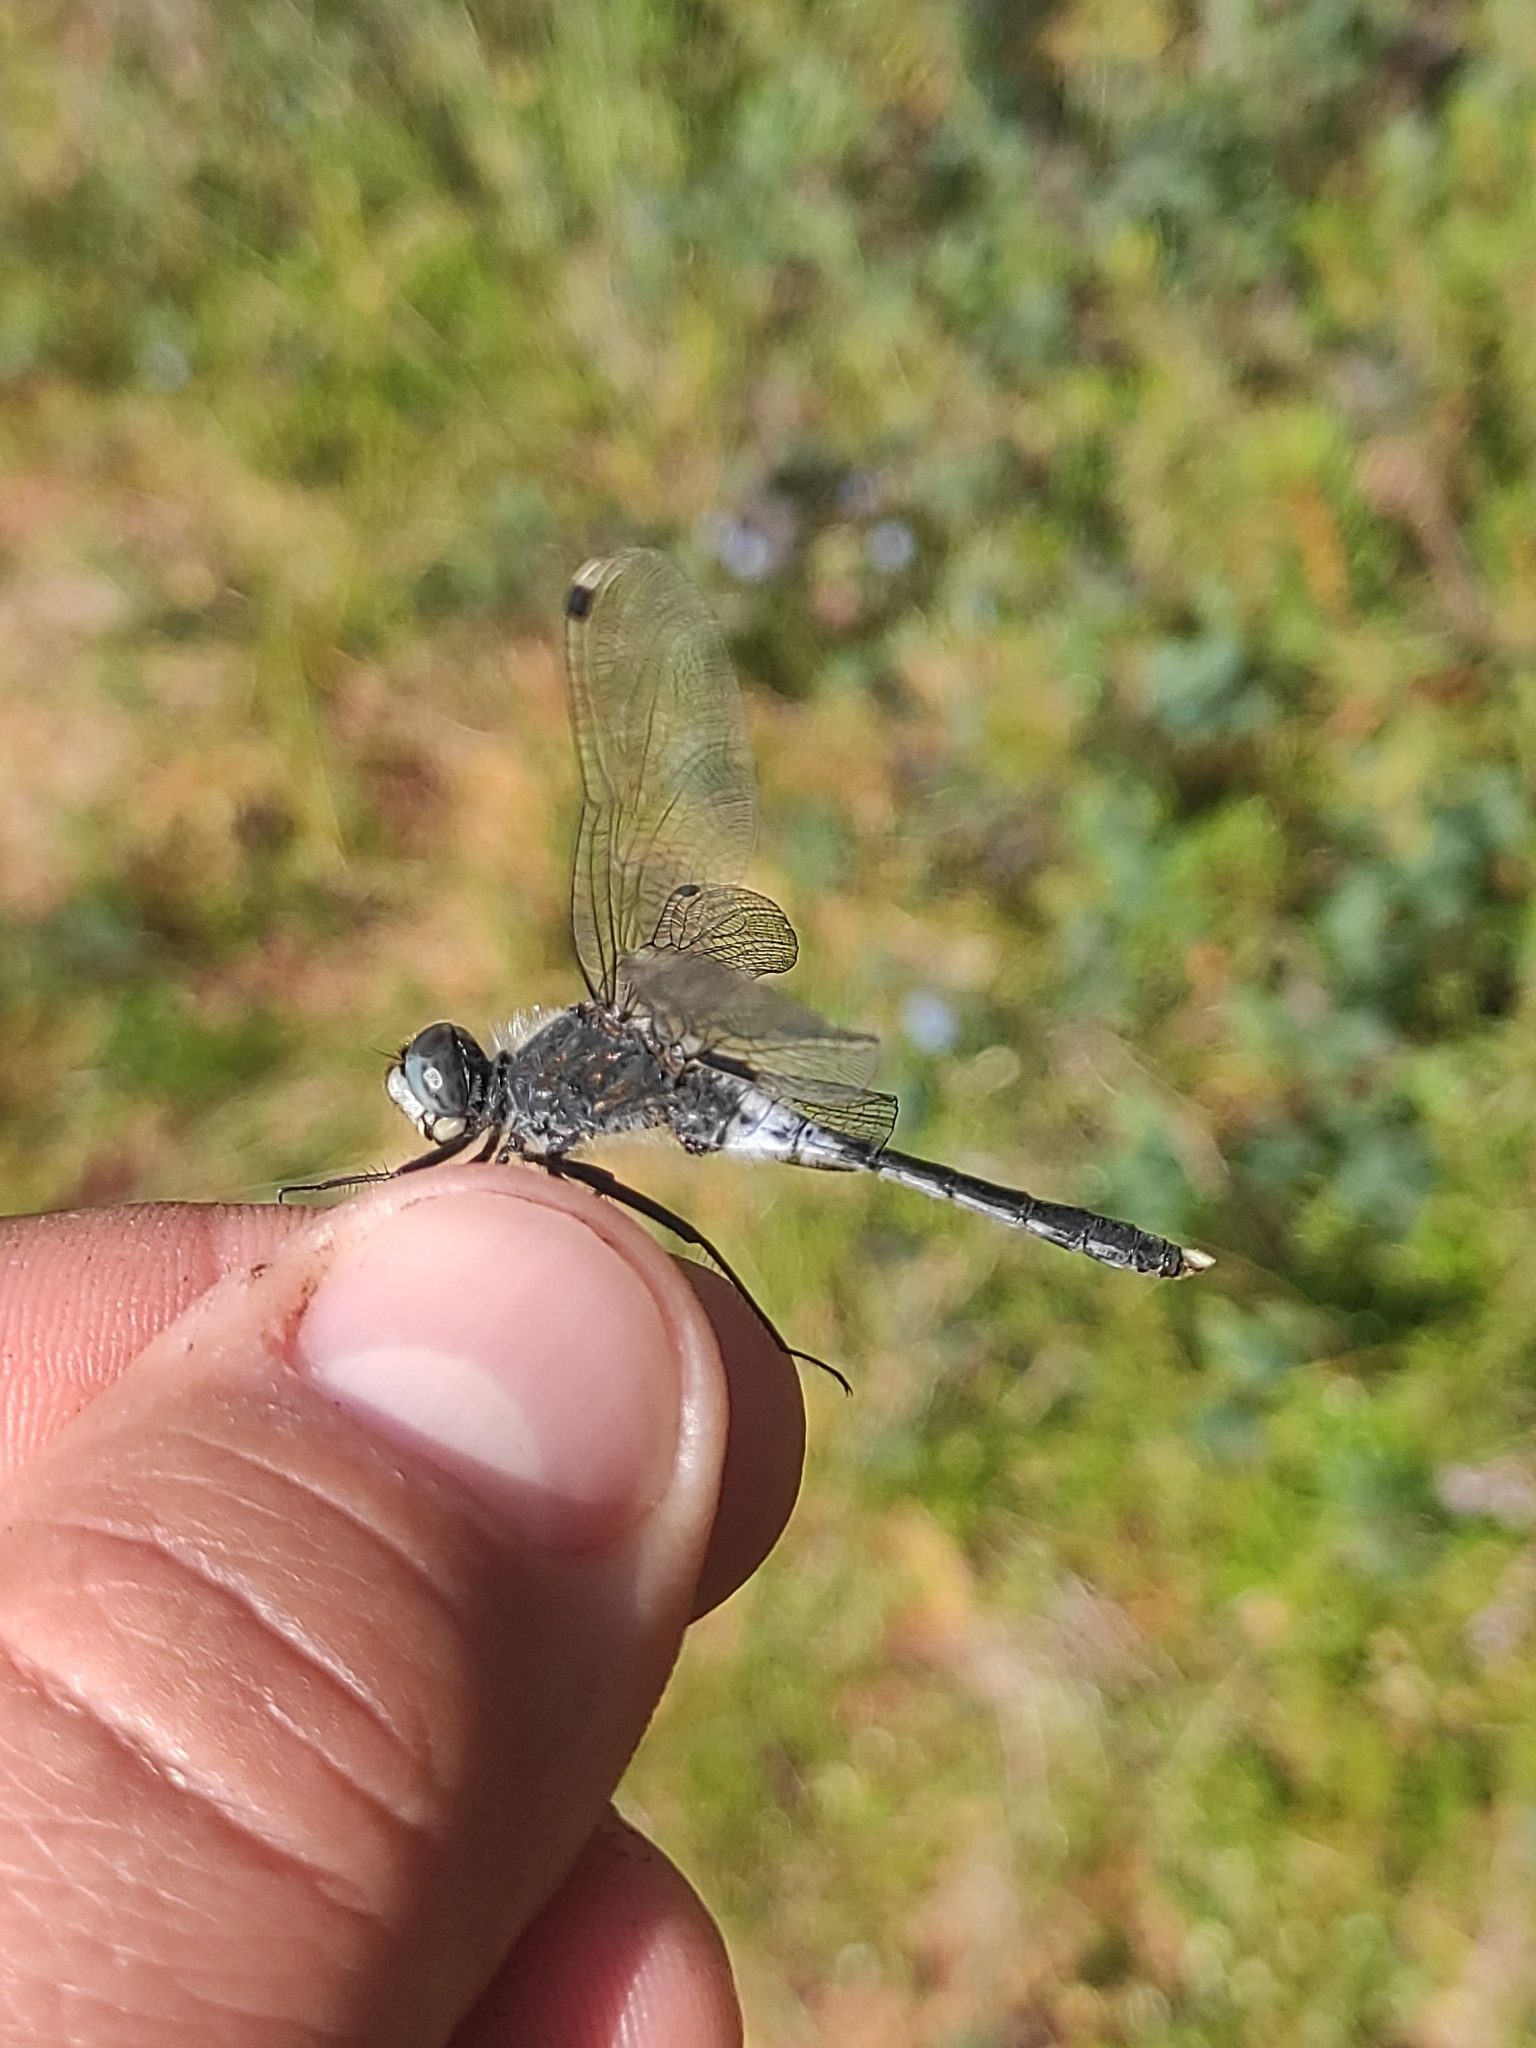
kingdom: Animalia
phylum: Arthropoda
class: Insecta
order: Odonata
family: Libellulidae
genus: Leucorrhinia
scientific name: Leucorrhinia albifrons
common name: Dark whiteface
